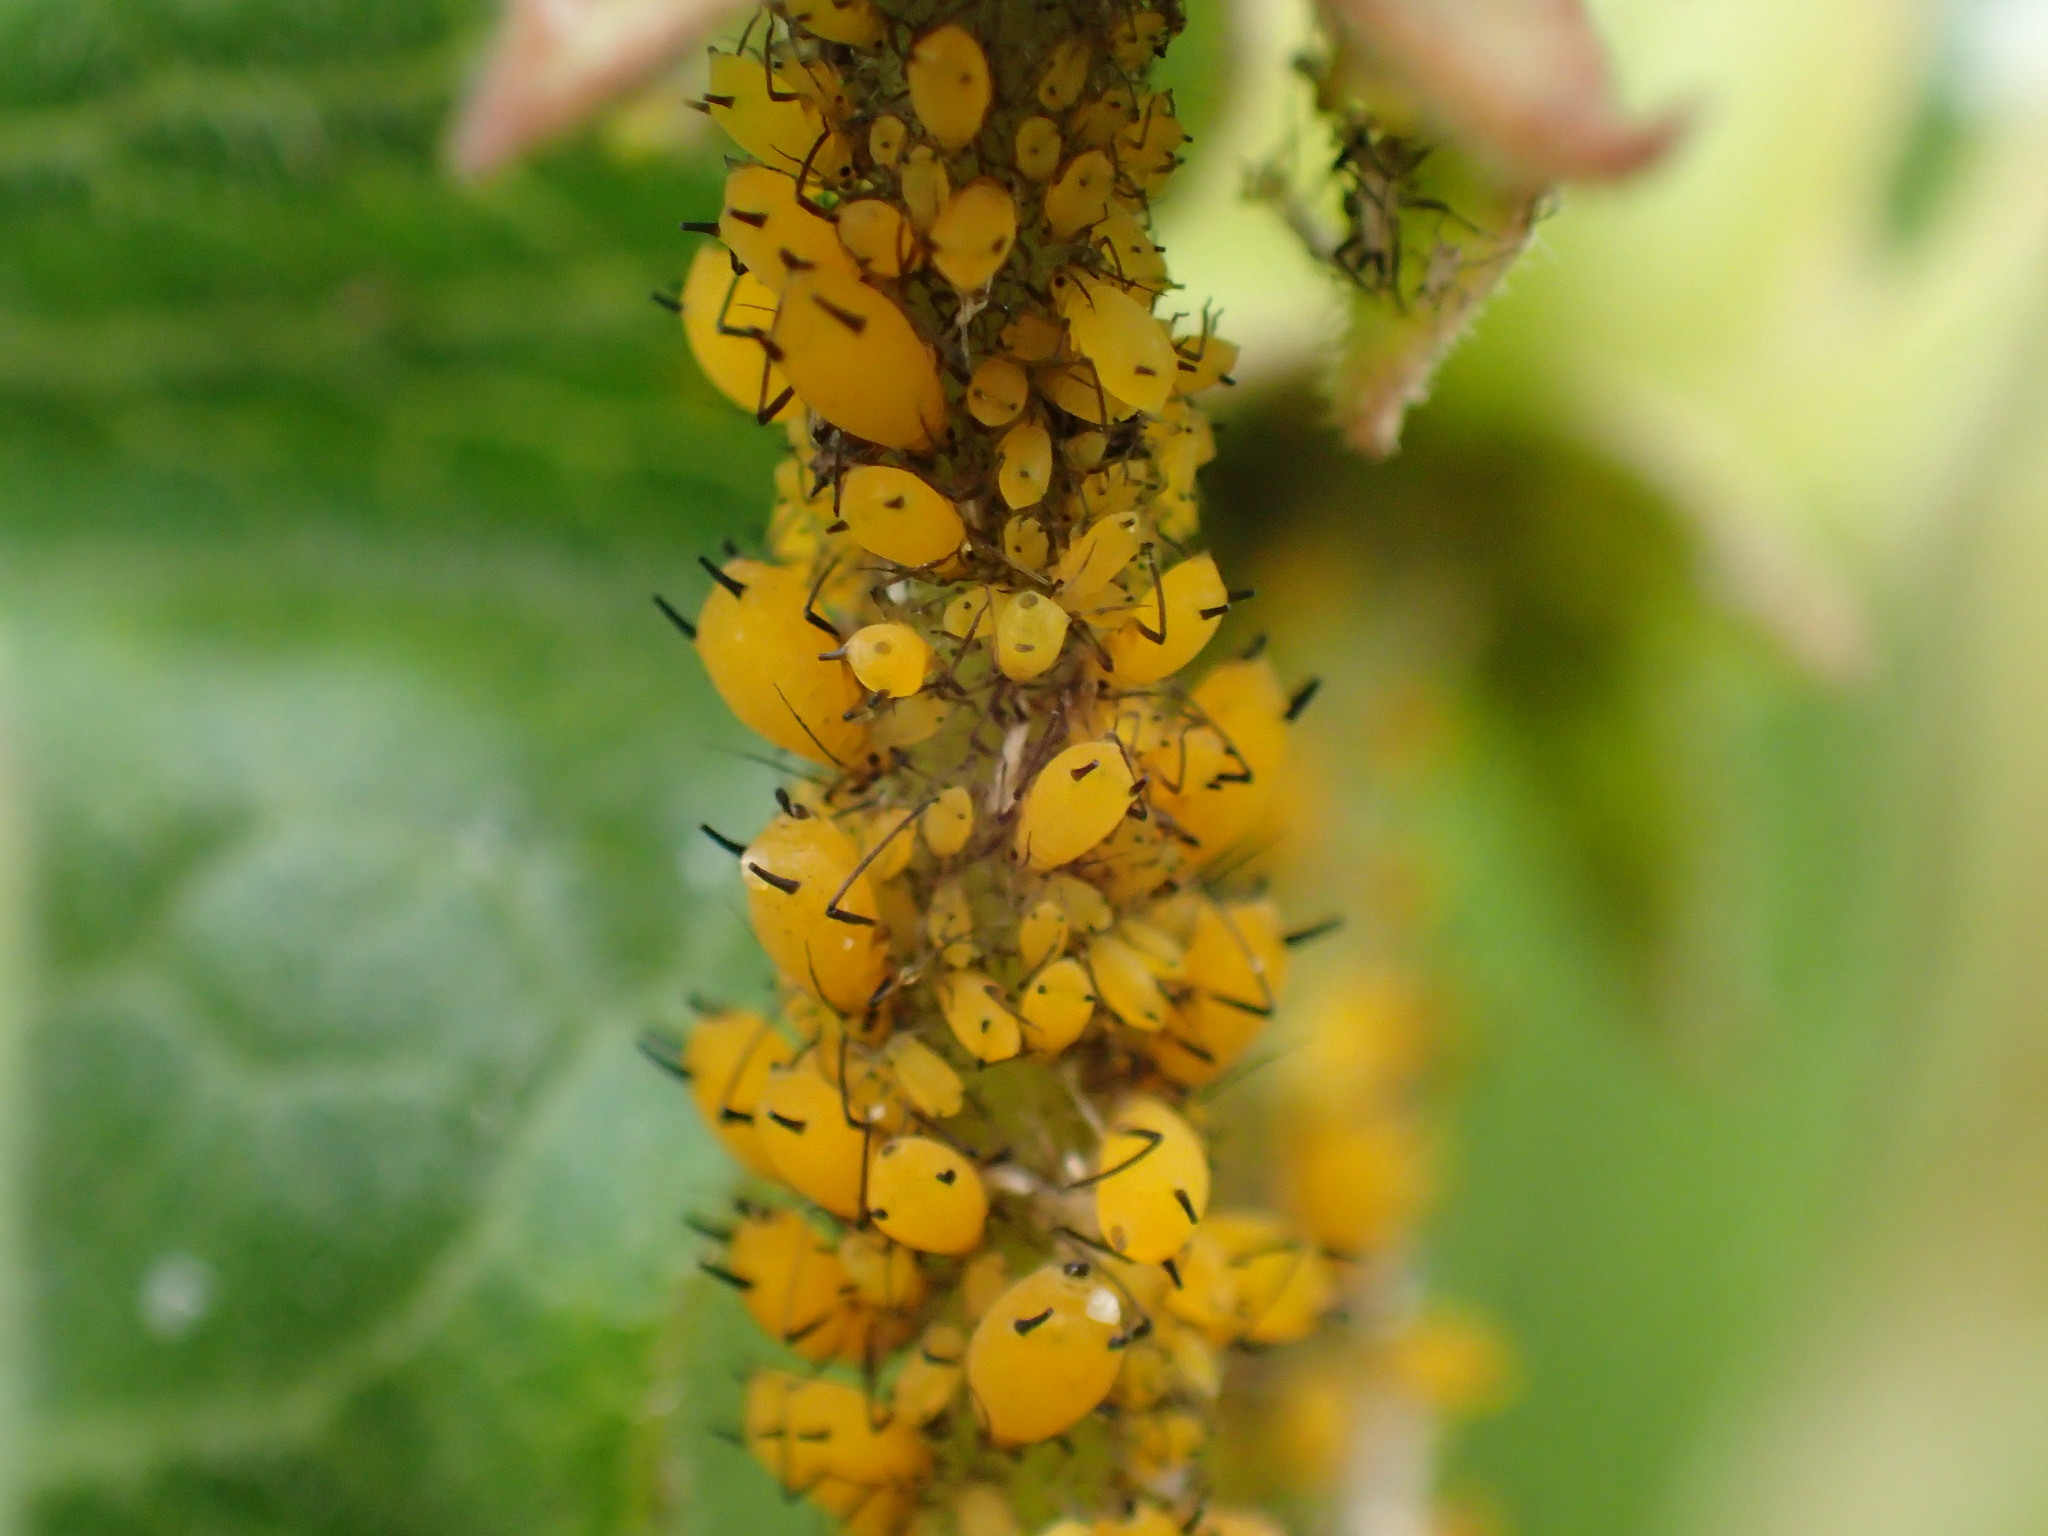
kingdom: Animalia
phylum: Arthropoda
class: Insecta
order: Hemiptera
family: Aphididae
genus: Aphis
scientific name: Aphis nerii
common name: Oleander aphid
